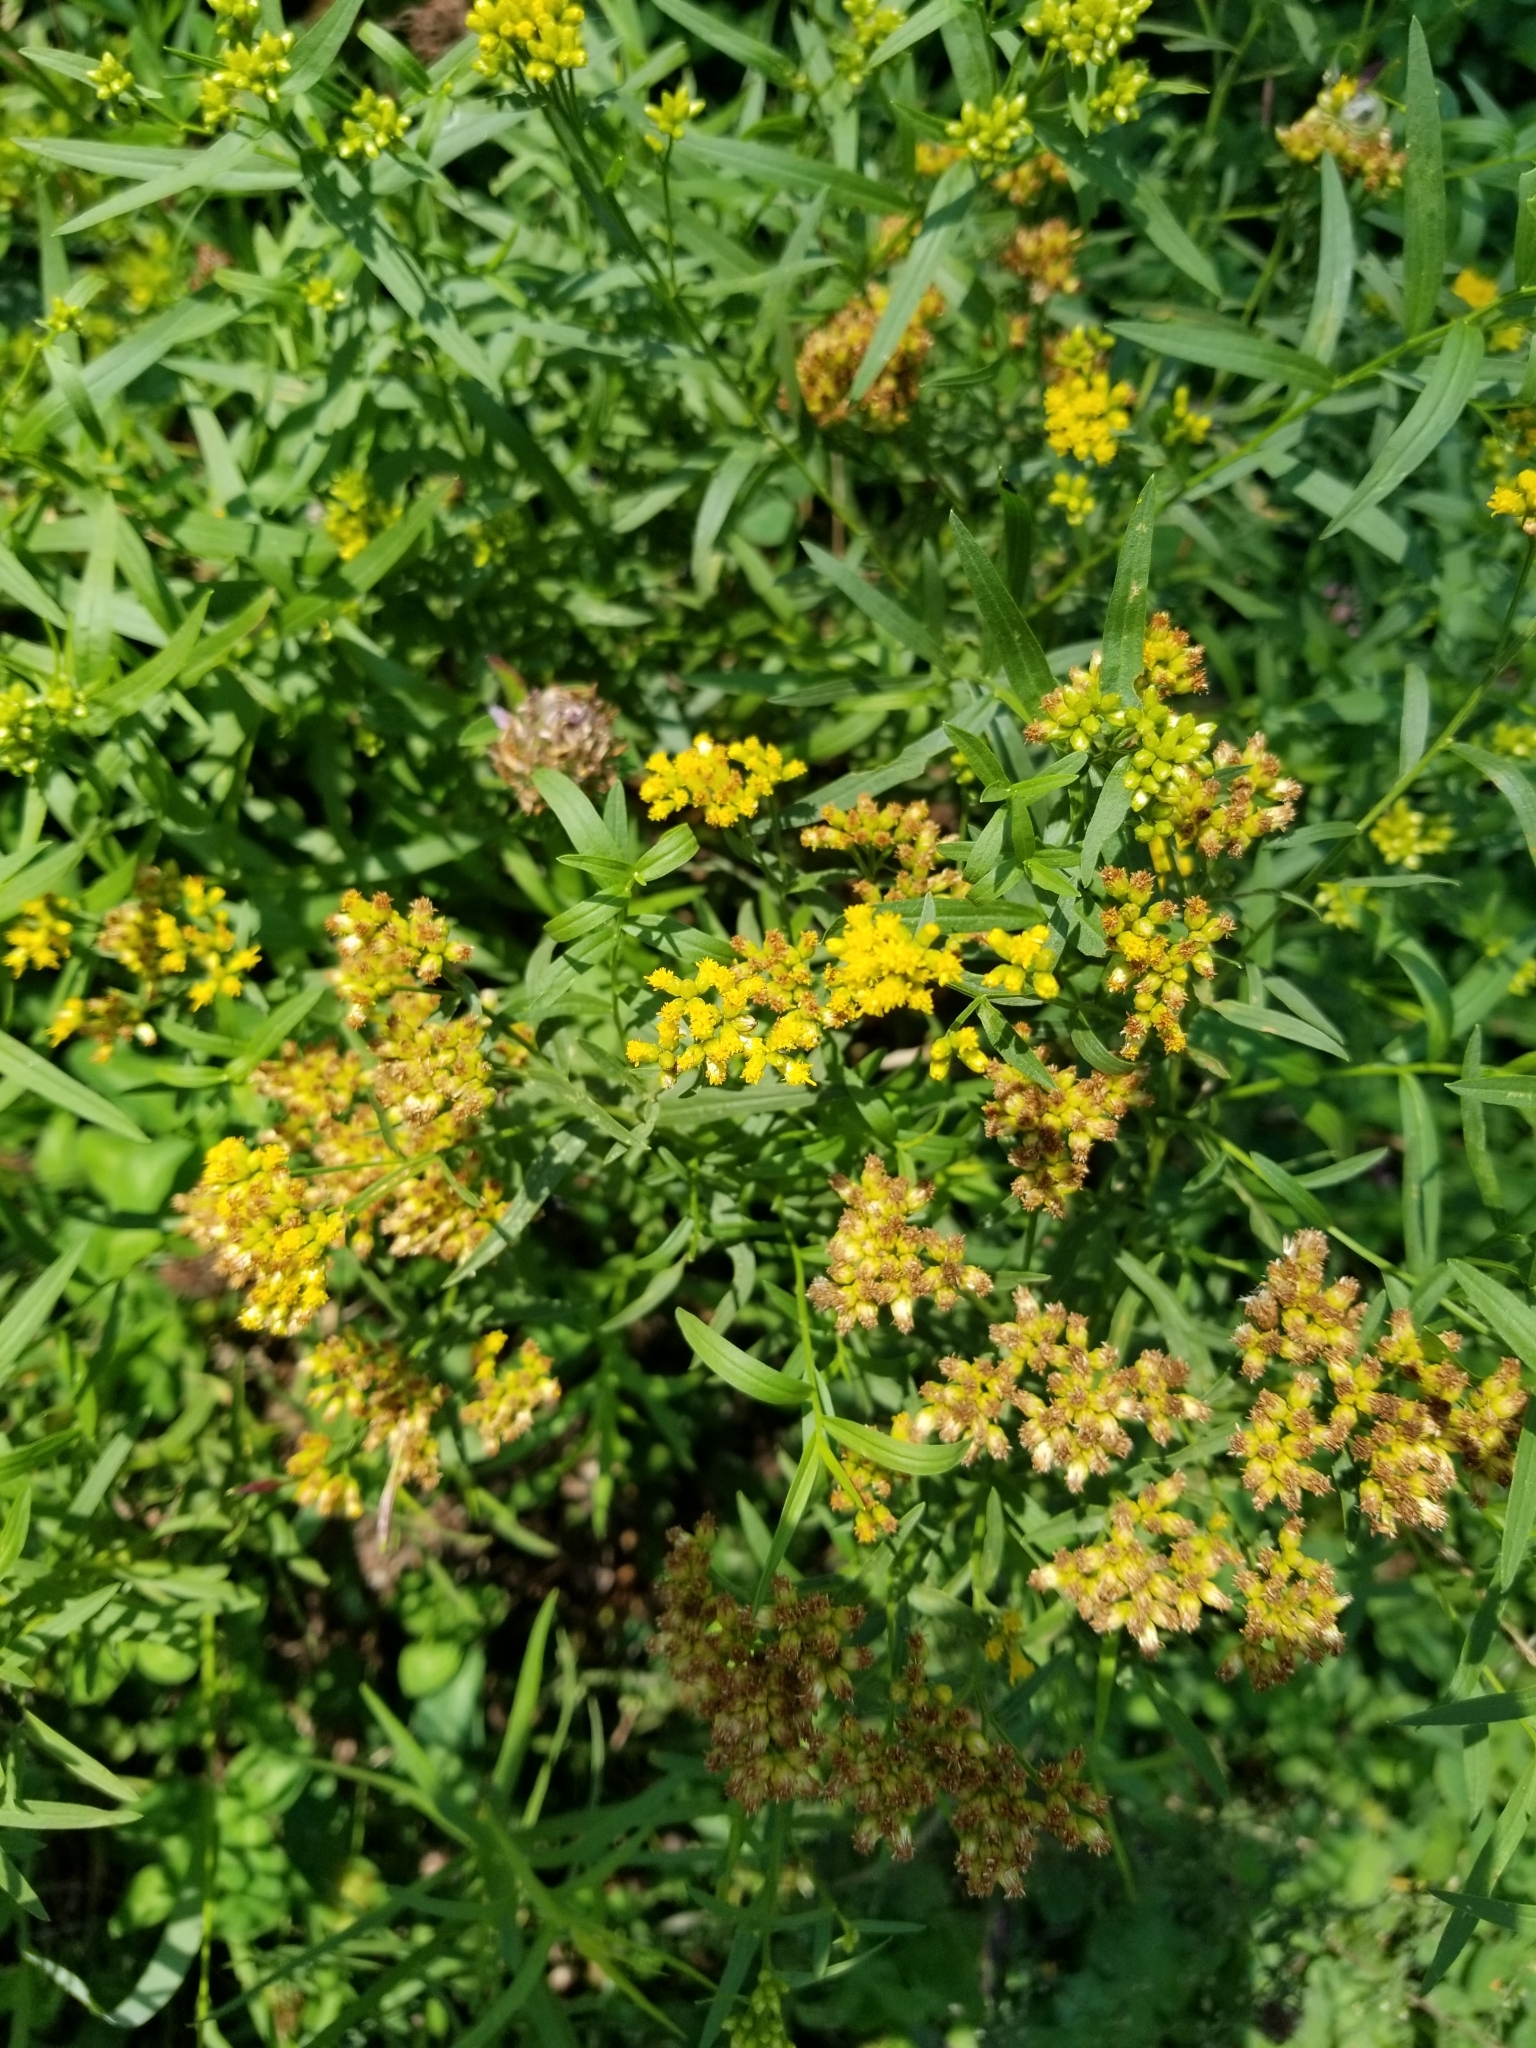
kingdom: Plantae
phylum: Tracheophyta
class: Magnoliopsida
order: Asterales
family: Asteraceae
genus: Euthamia
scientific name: Euthamia graminifolia
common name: Common goldentop
